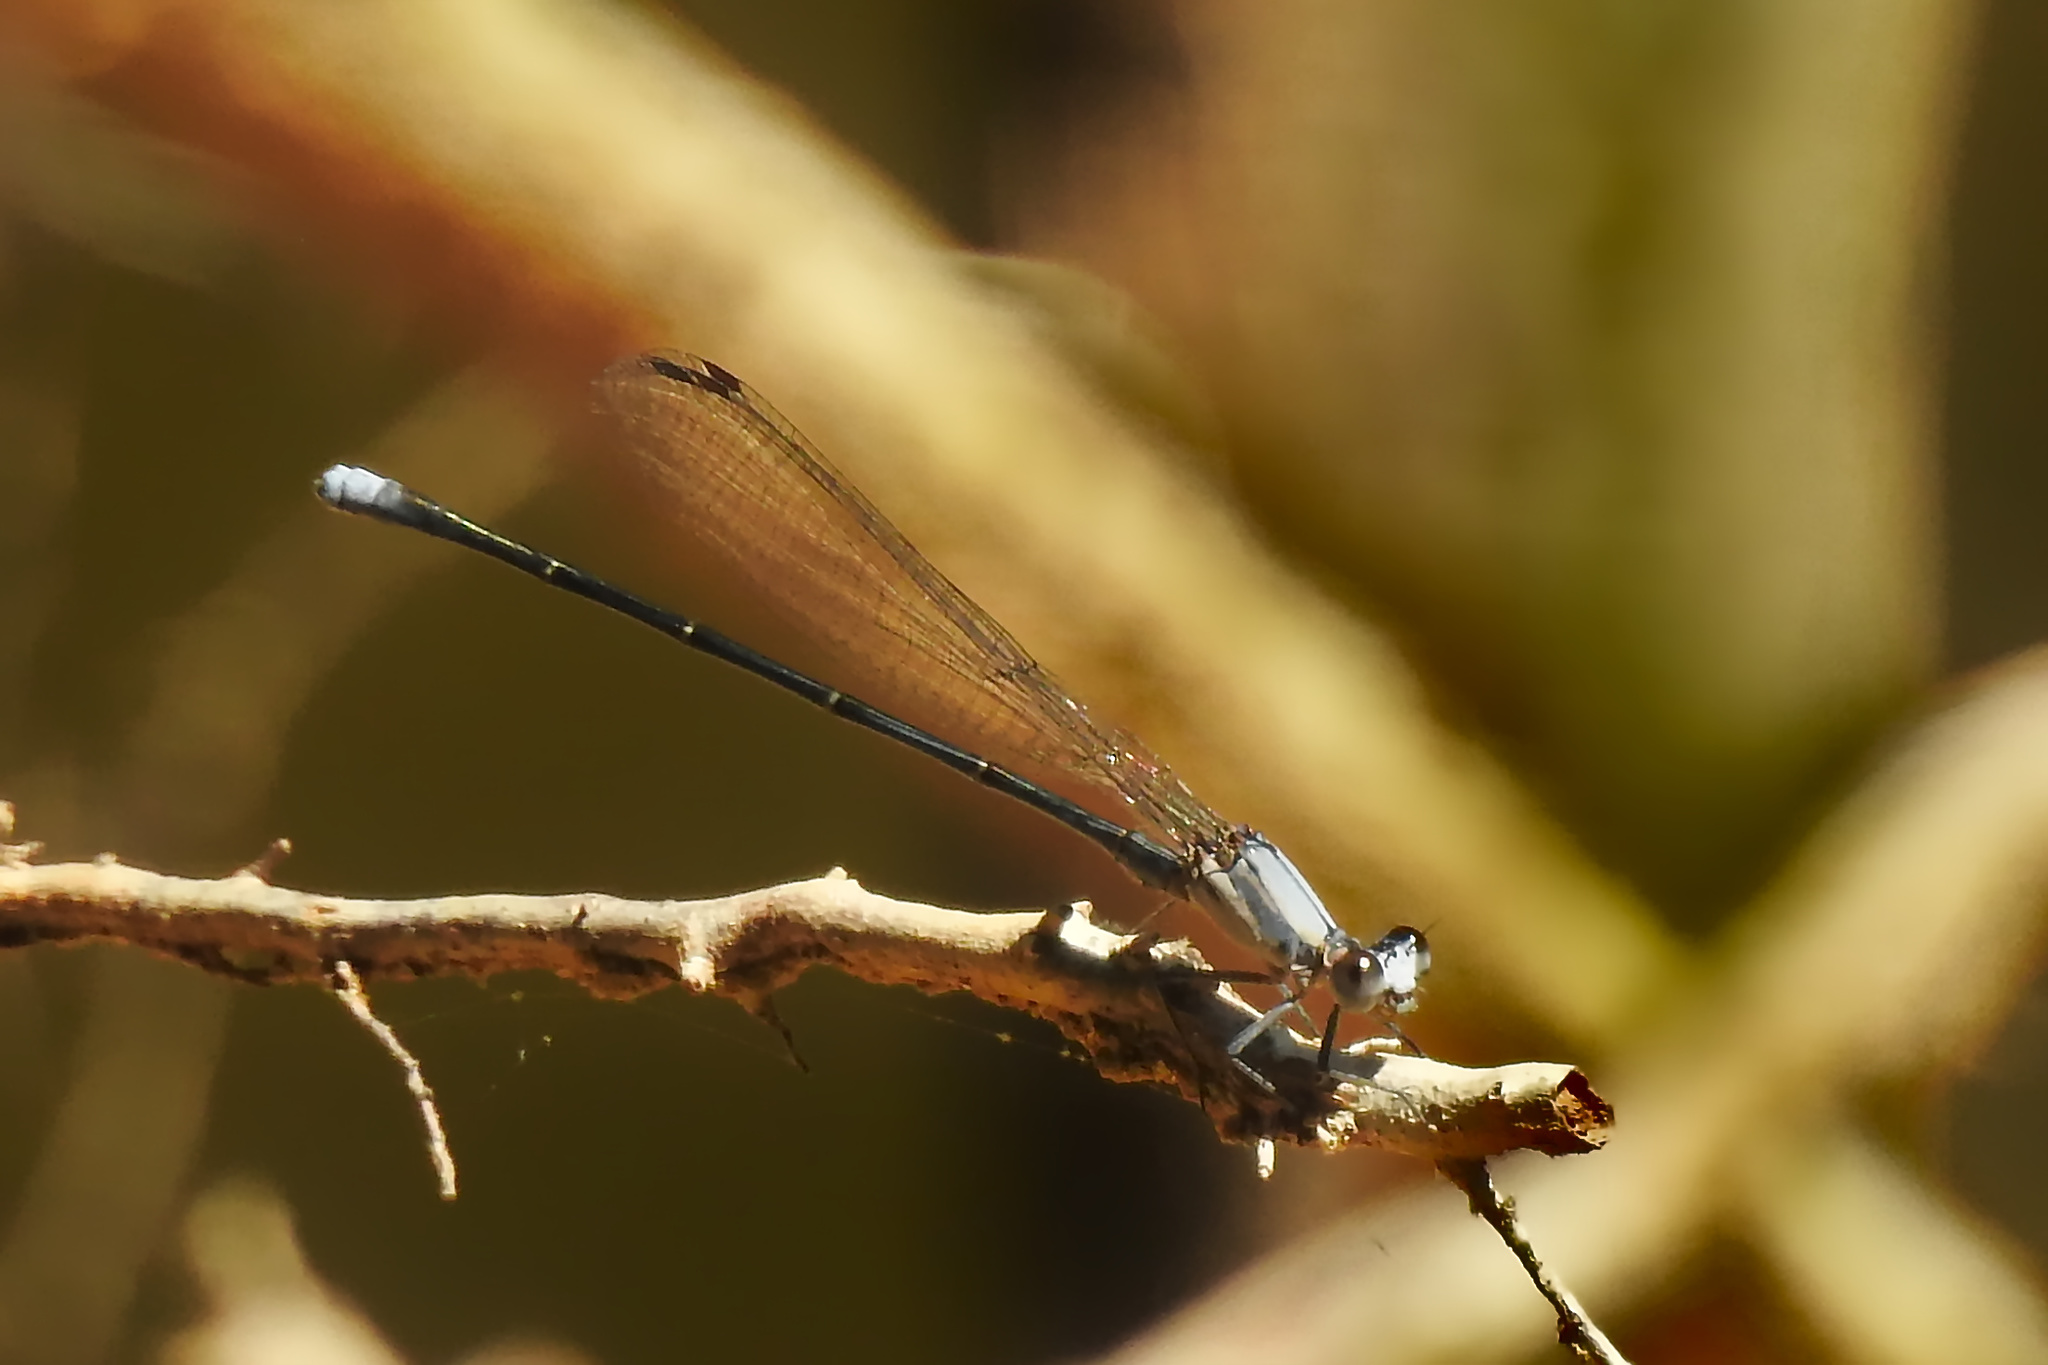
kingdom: Animalia
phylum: Arthropoda
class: Insecta
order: Odonata
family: Coenagrionidae
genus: Argia
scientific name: Argia moesta
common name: Powdered dancer
